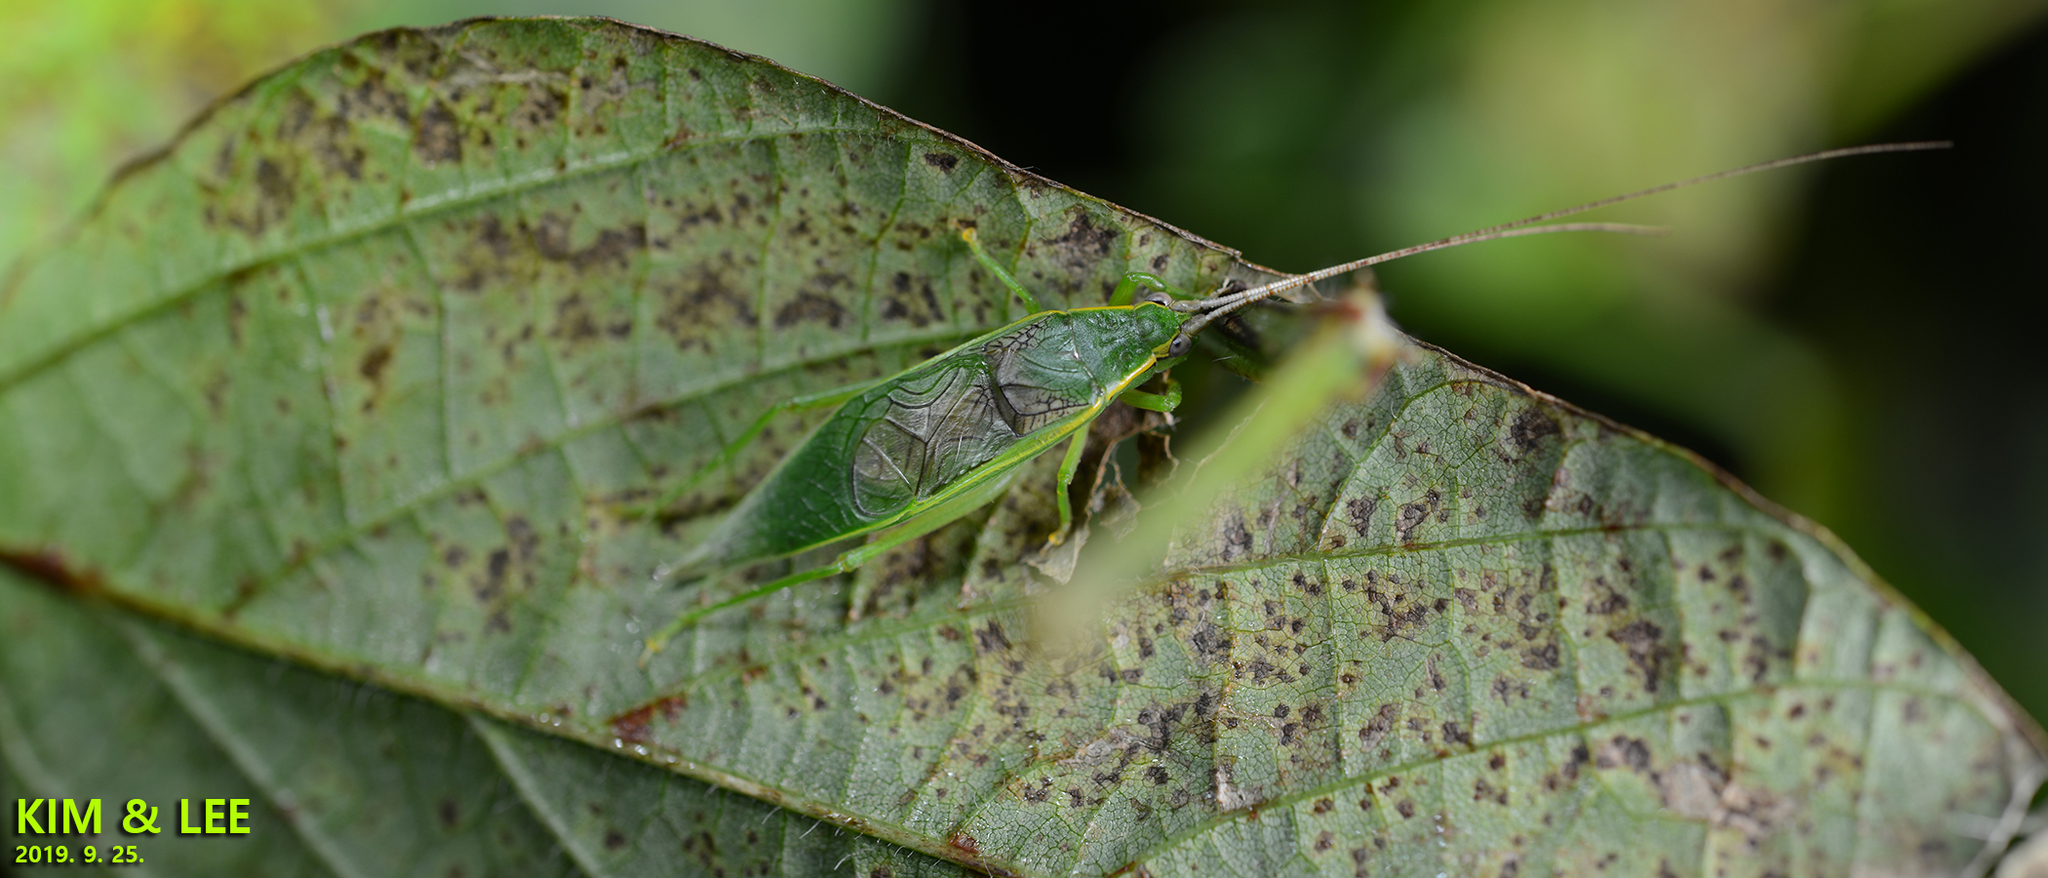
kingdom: Animalia
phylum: Arthropoda
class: Insecta
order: Orthoptera
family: Gryllidae
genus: Truljalia
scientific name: Truljalia hibinonis
